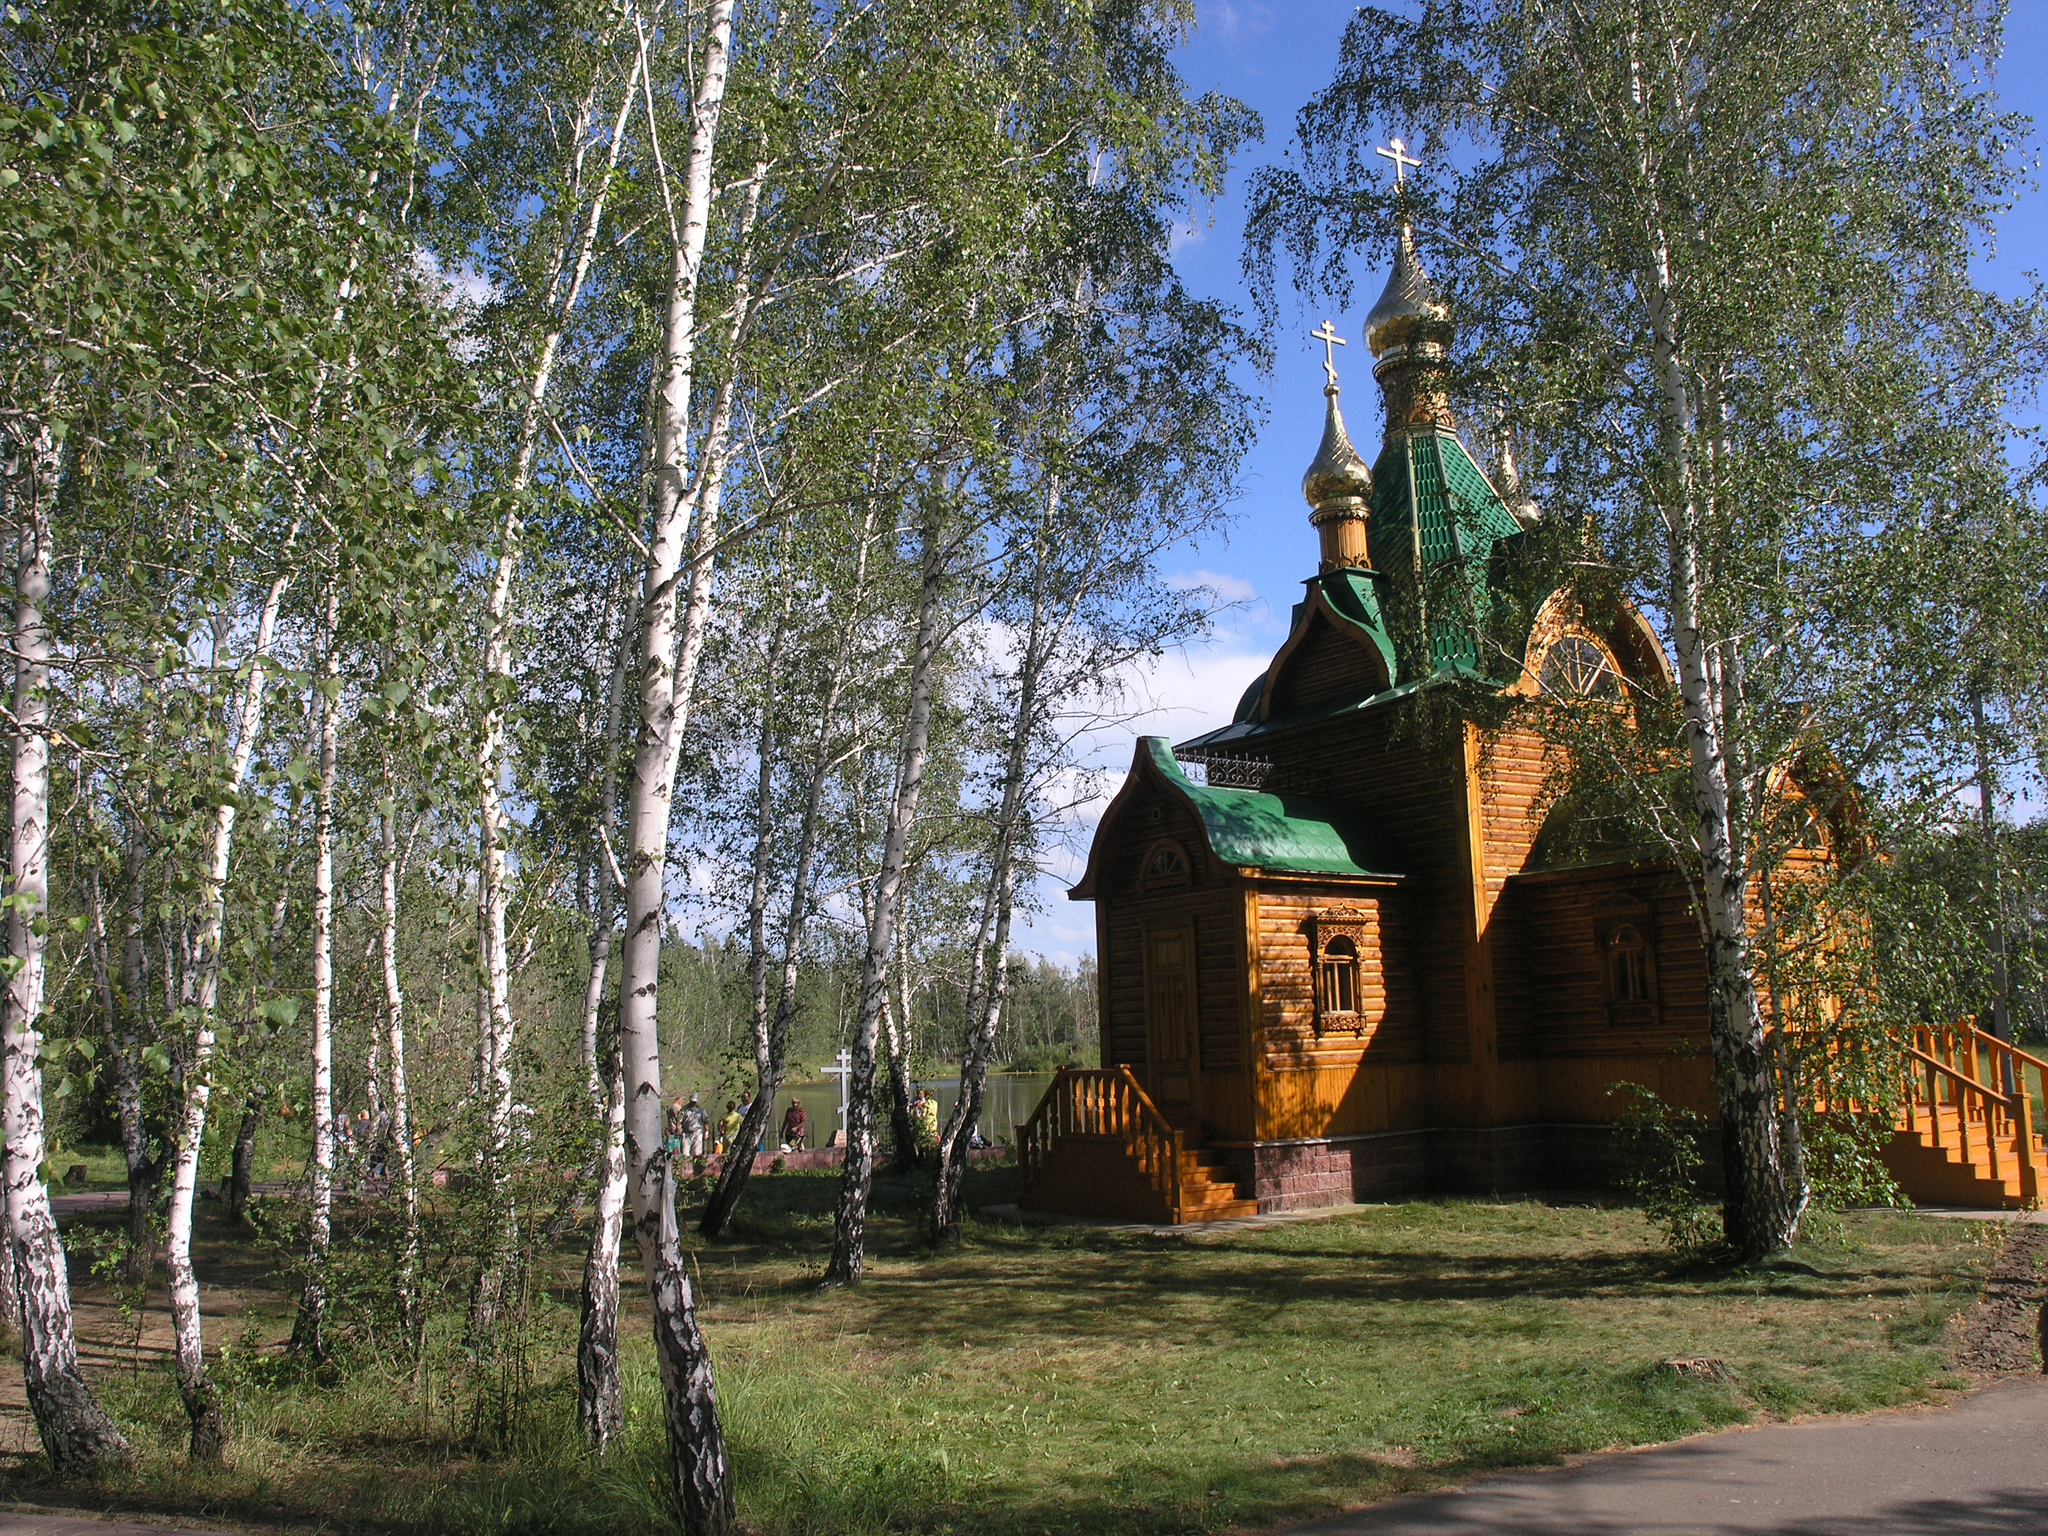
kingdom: Plantae
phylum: Tracheophyta
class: Magnoliopsida
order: Fagales
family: Betulaceae
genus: Betula
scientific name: Betula pendula
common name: Silver birch
